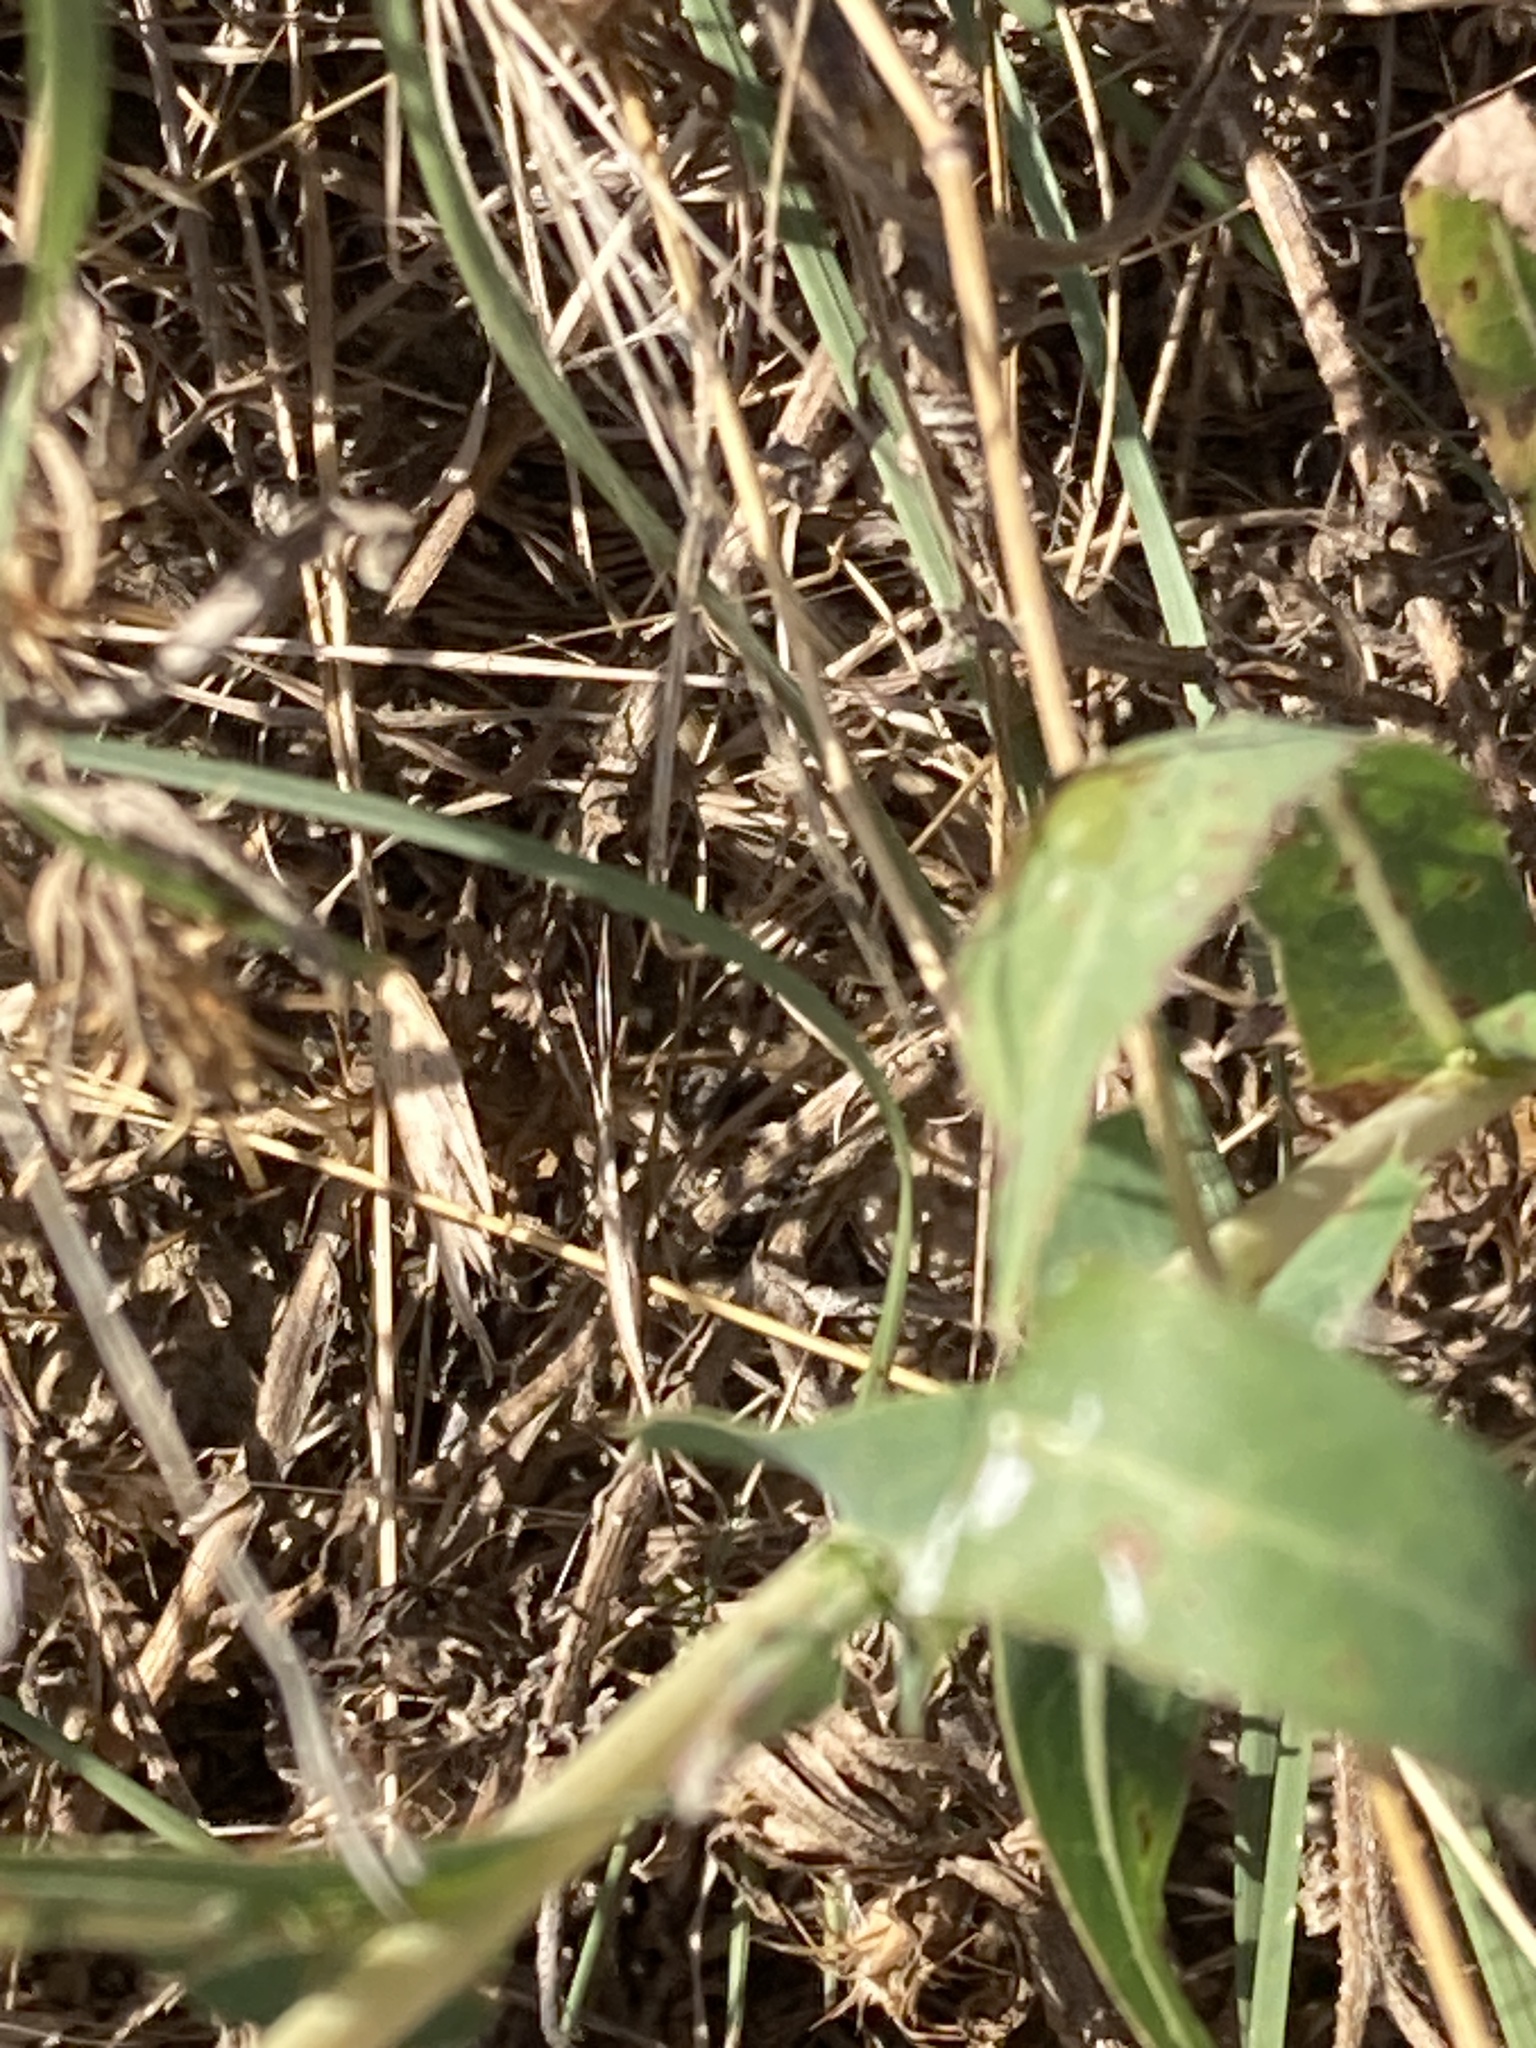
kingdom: Plantae
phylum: Tracheophyta
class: Magnoliopsida
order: Asterales
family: Asteraceae
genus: Lactuca
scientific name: Lactuca serriola
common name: Prickly lettuce
